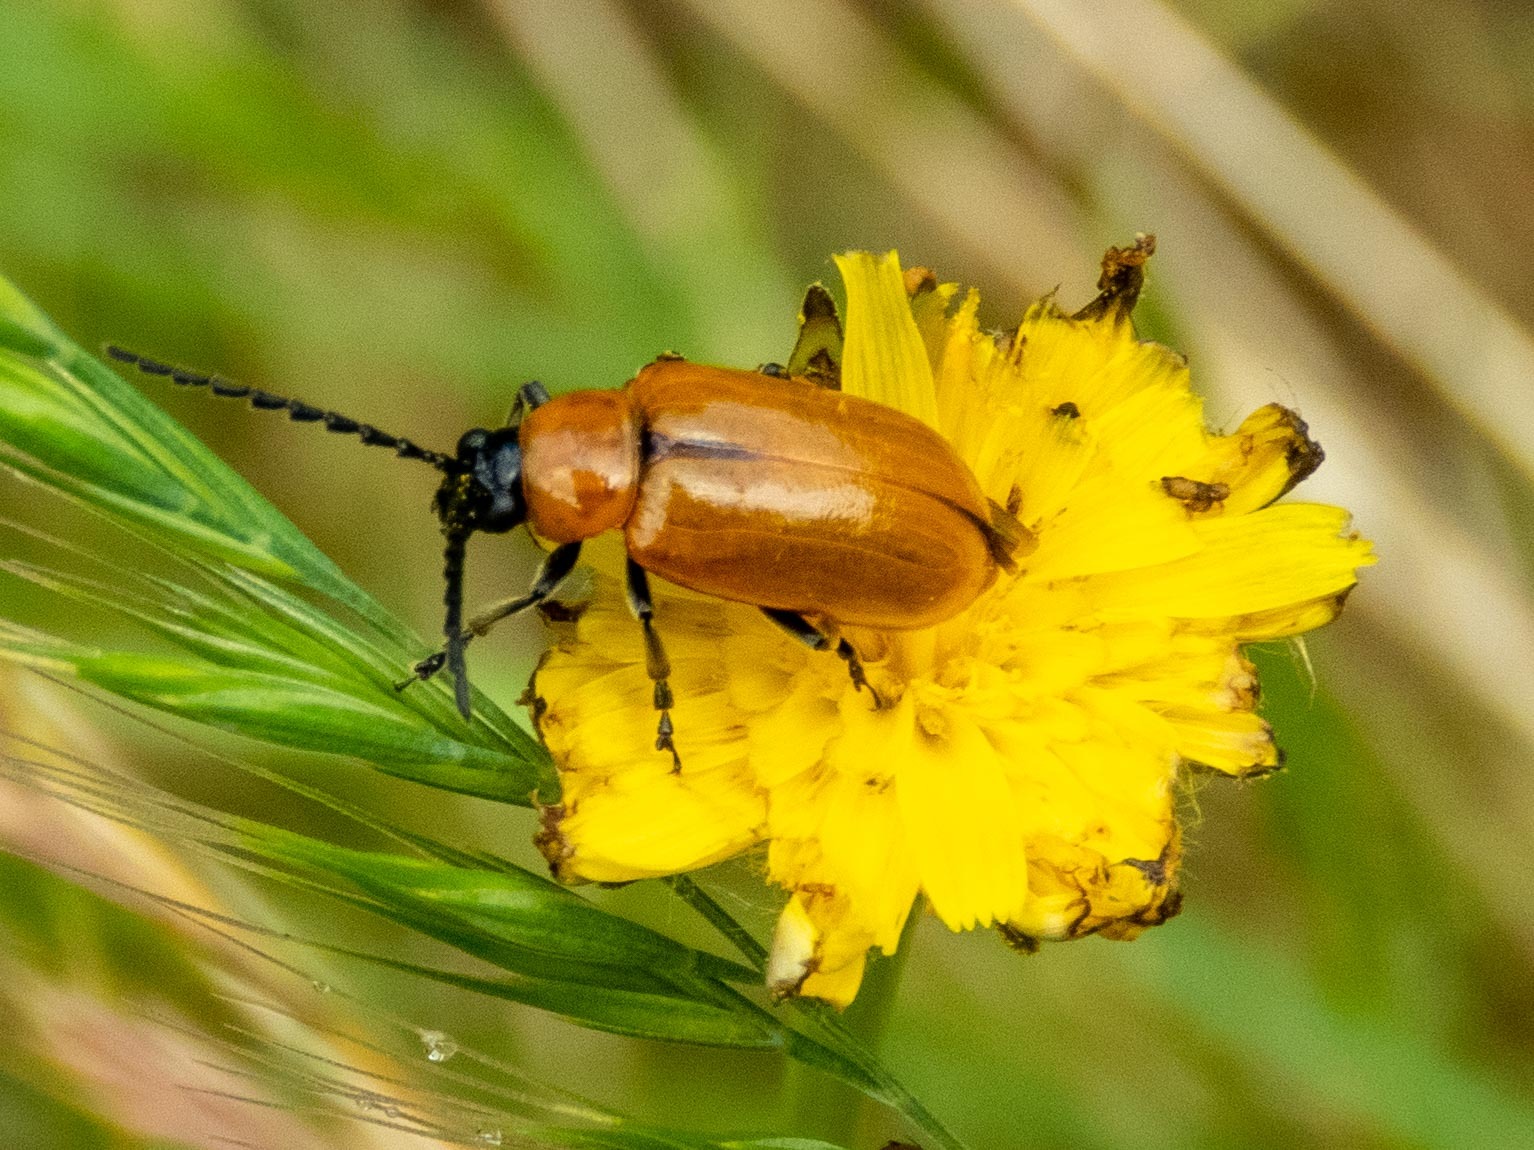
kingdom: Animalia
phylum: Arthropoda
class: Insecta
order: Coleoptera
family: Chrysomelidae
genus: Exosoma
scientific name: Exosoma lusitanicum
